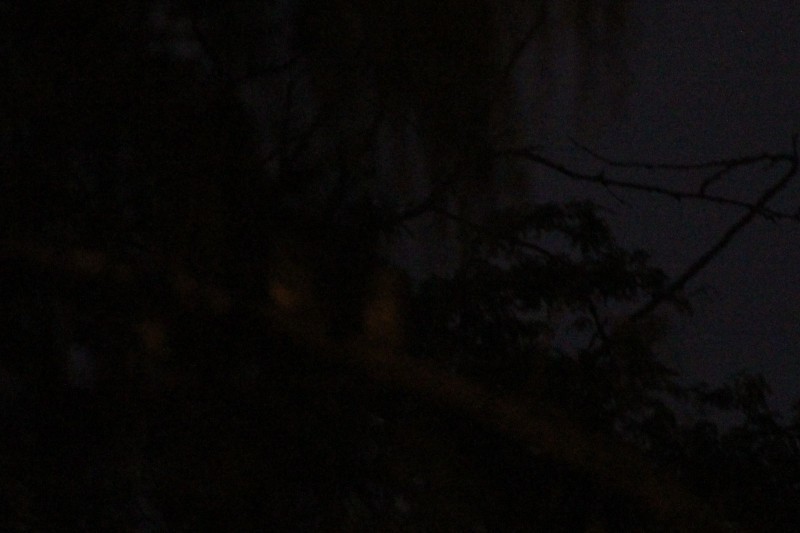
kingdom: Animalia
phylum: Chordata
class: Aves
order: Strigiformes
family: Strigidae
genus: Glaucidium
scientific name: Glaucidium peruanum
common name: Pacific pygmy owl
